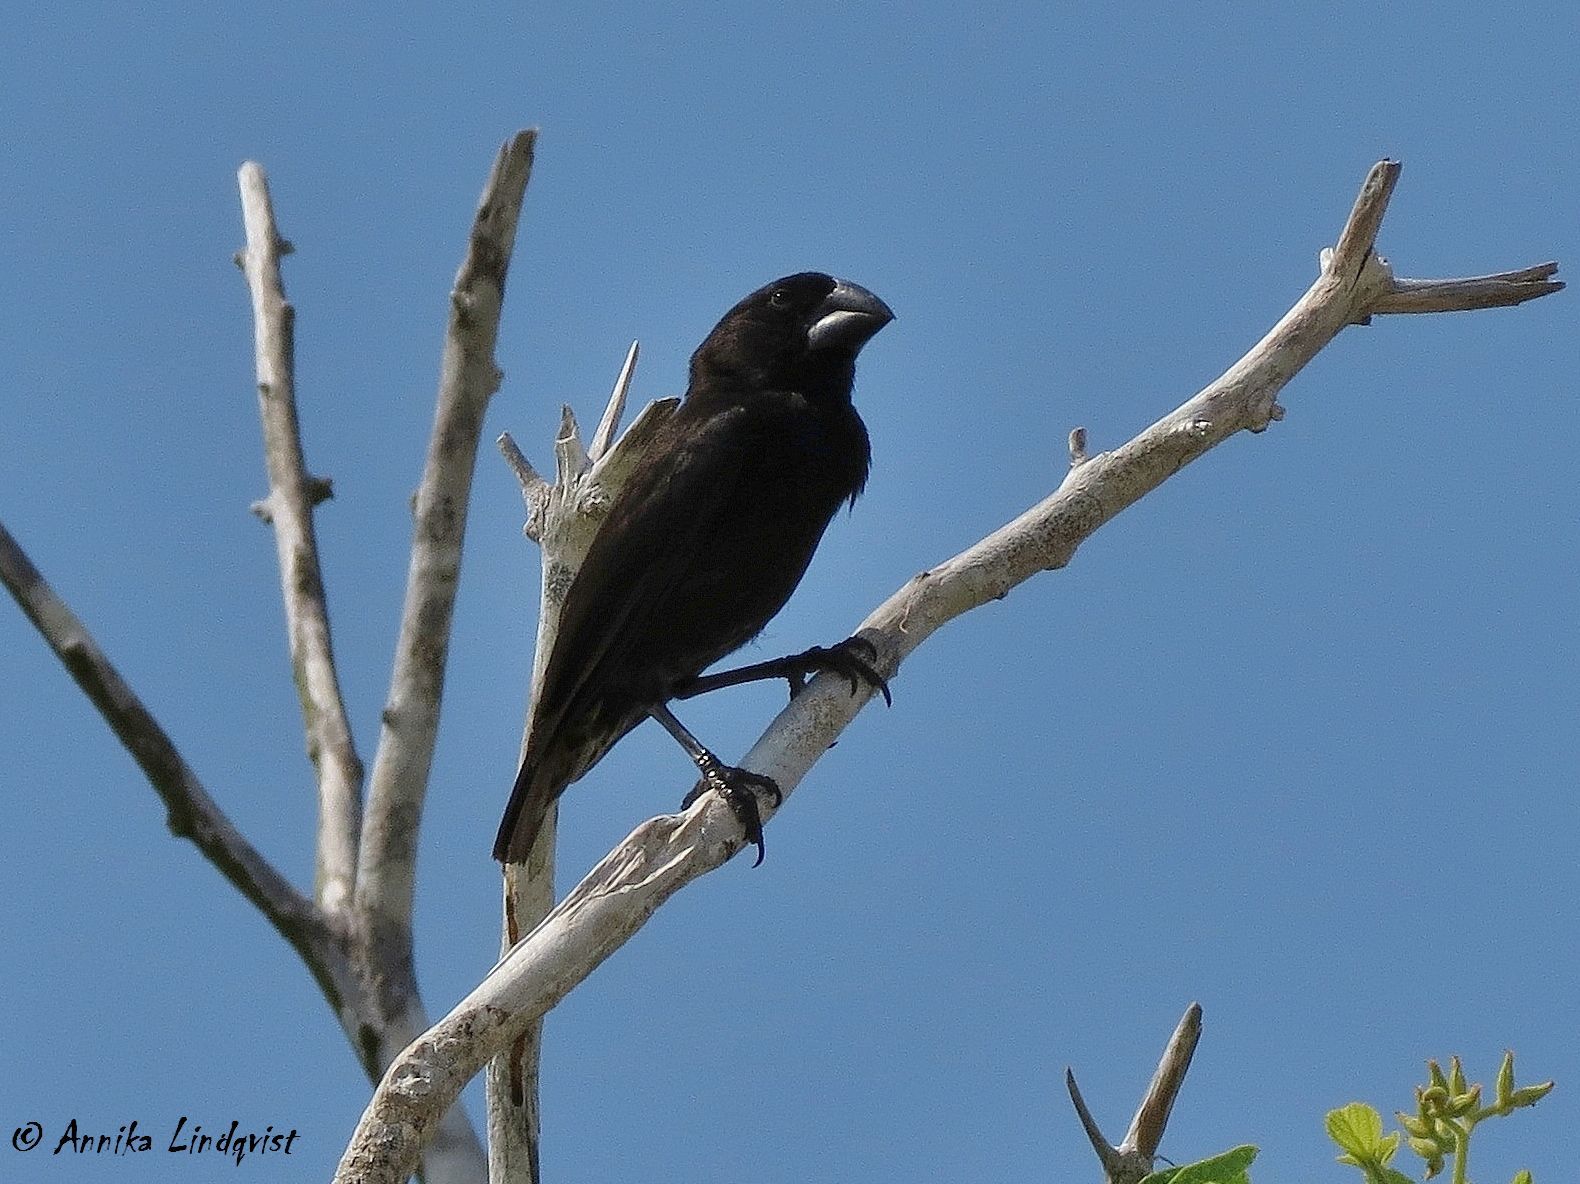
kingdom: Animalia
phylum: Chordata
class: Aves
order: Passeriformes
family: Thraupidae
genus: Geospiza
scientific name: Geospiza magnirostris
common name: Large ground-finch
